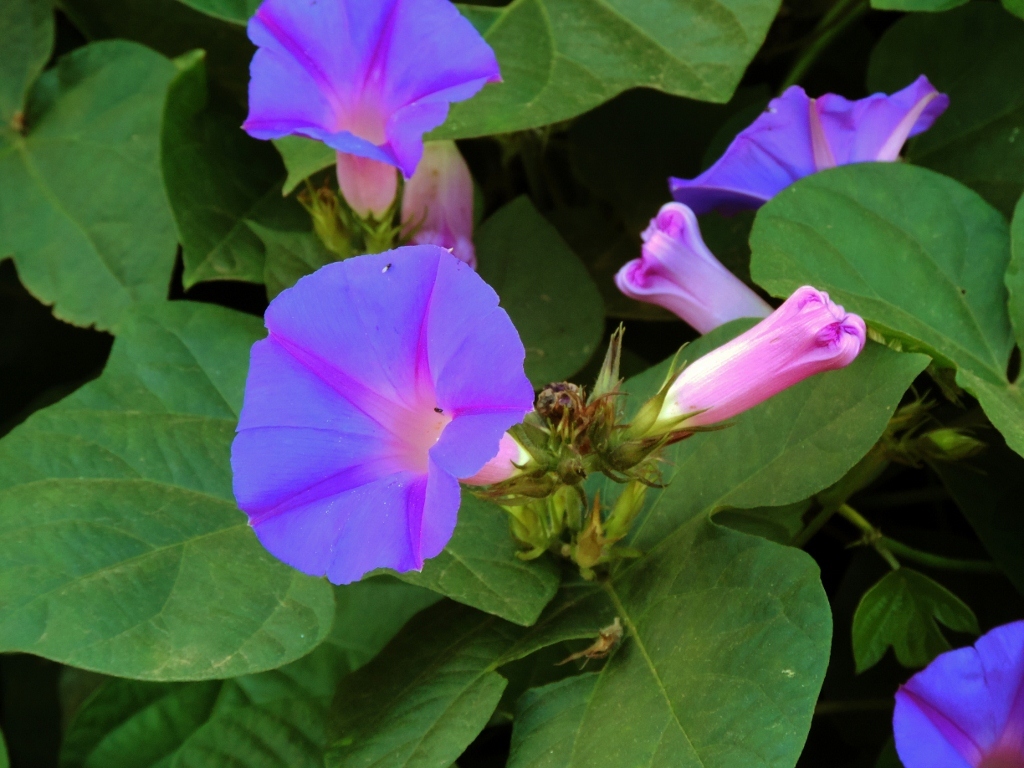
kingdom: Plantae
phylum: Tracheophyta
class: Magnoliopsida
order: Solanales
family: Convolvulaceae
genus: Ipomoea
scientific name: Ipomoea indica
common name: Blue dawnflower
